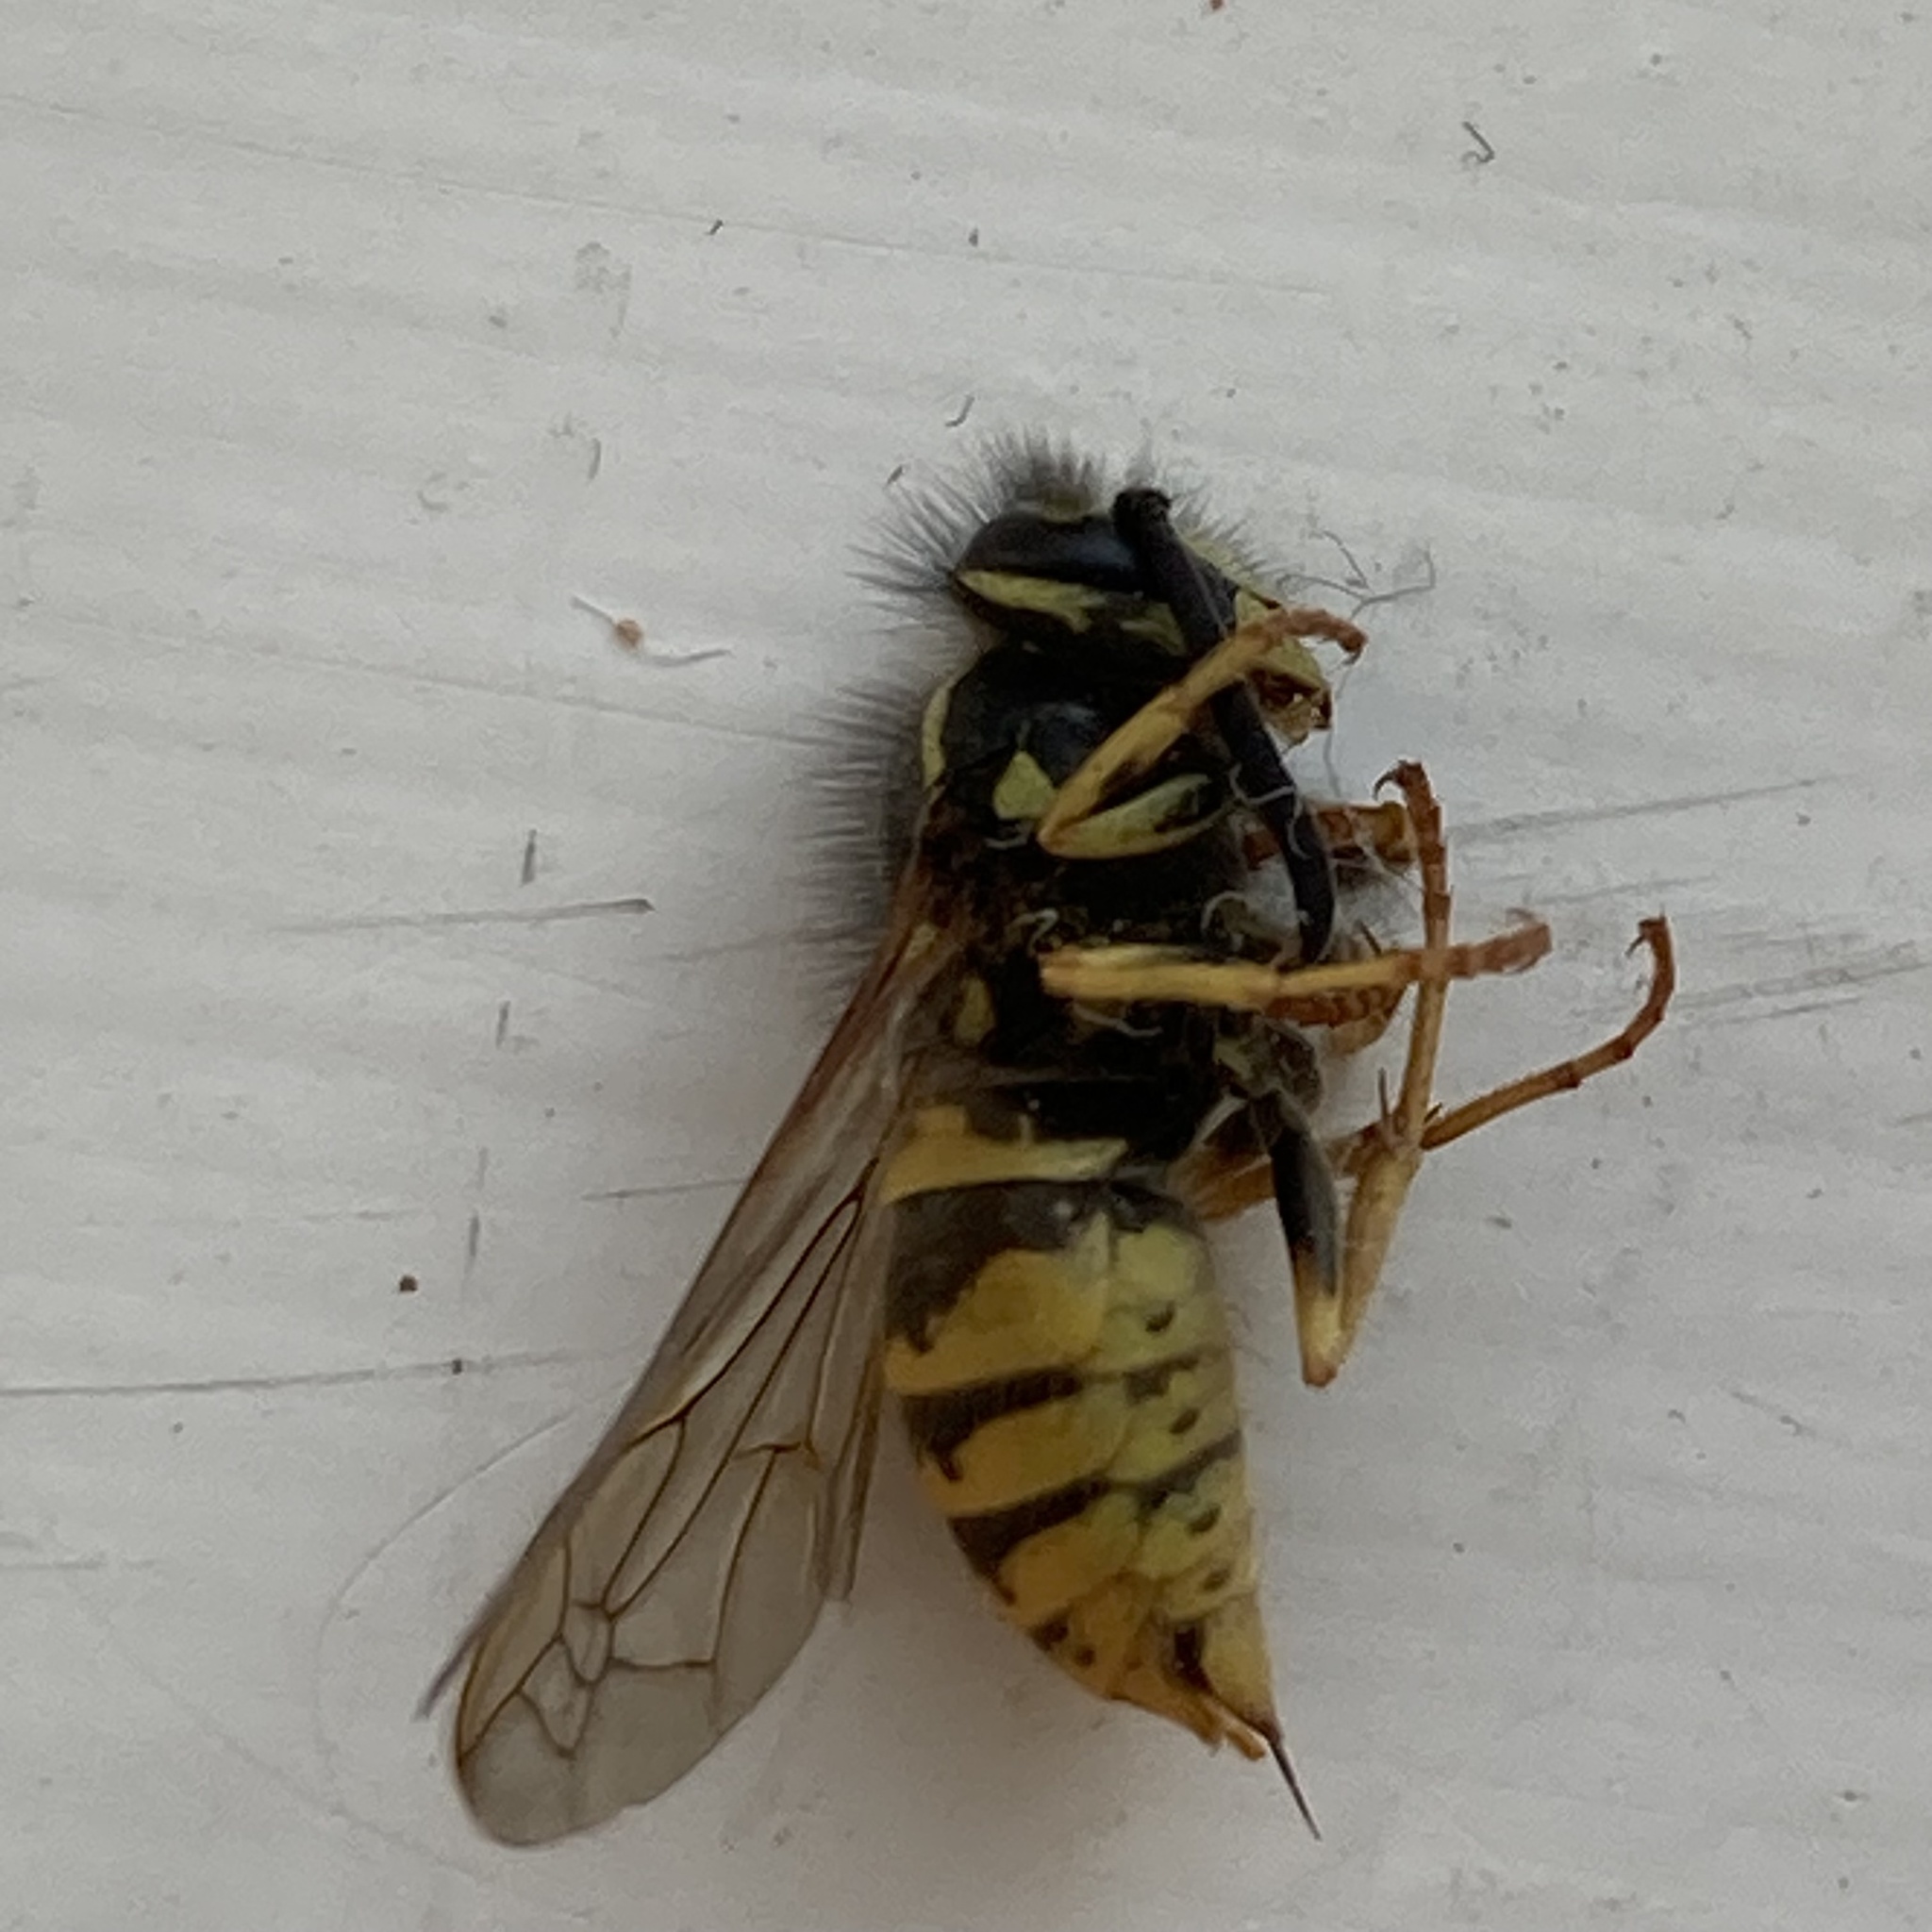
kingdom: Animalia
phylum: Arthropoda
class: Insecta
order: Hymenoptera
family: Vespidae
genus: Vespula
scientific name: Vespula vulgaris
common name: Common wasp
